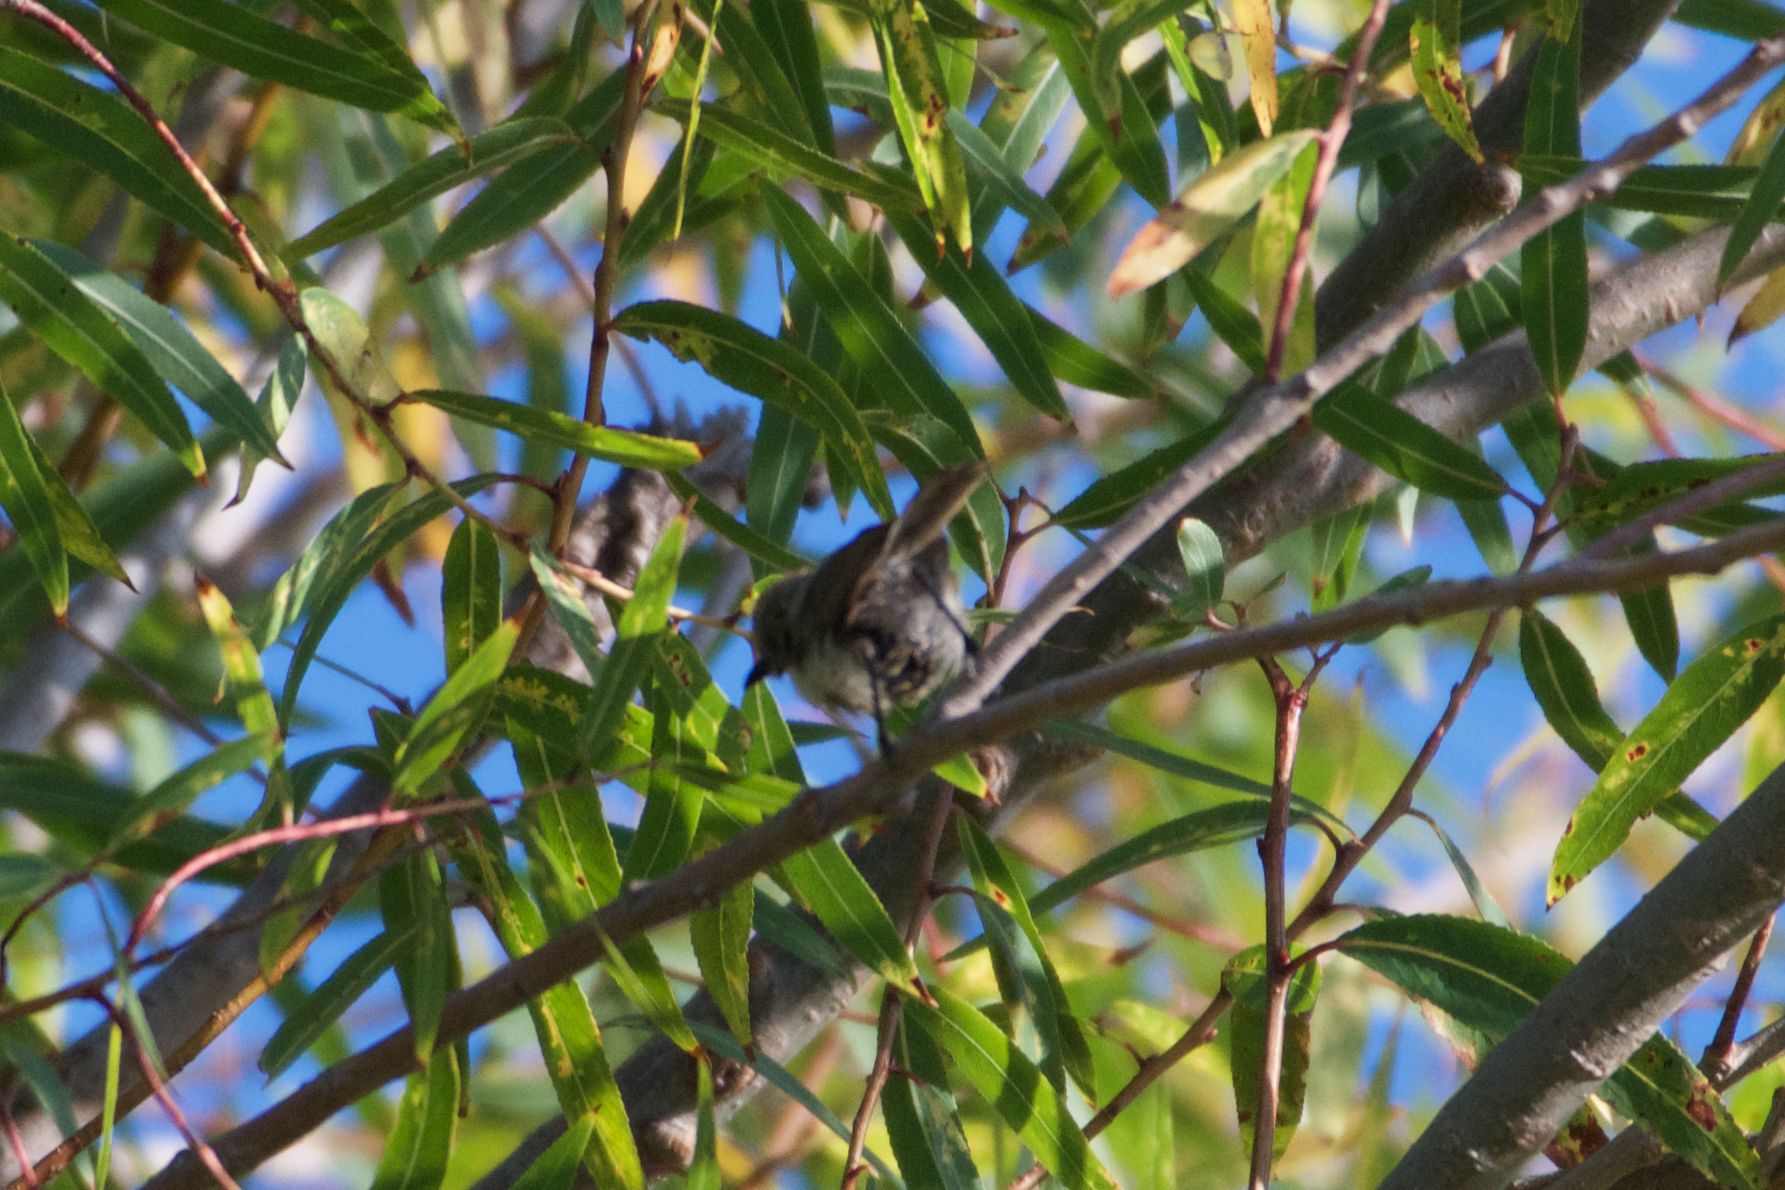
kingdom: Animalia
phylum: Chordata
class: Aves
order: Passeriformes
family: Aegithalidae
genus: Psaltriparus
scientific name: Psaltriparus minimus
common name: American bushtit
